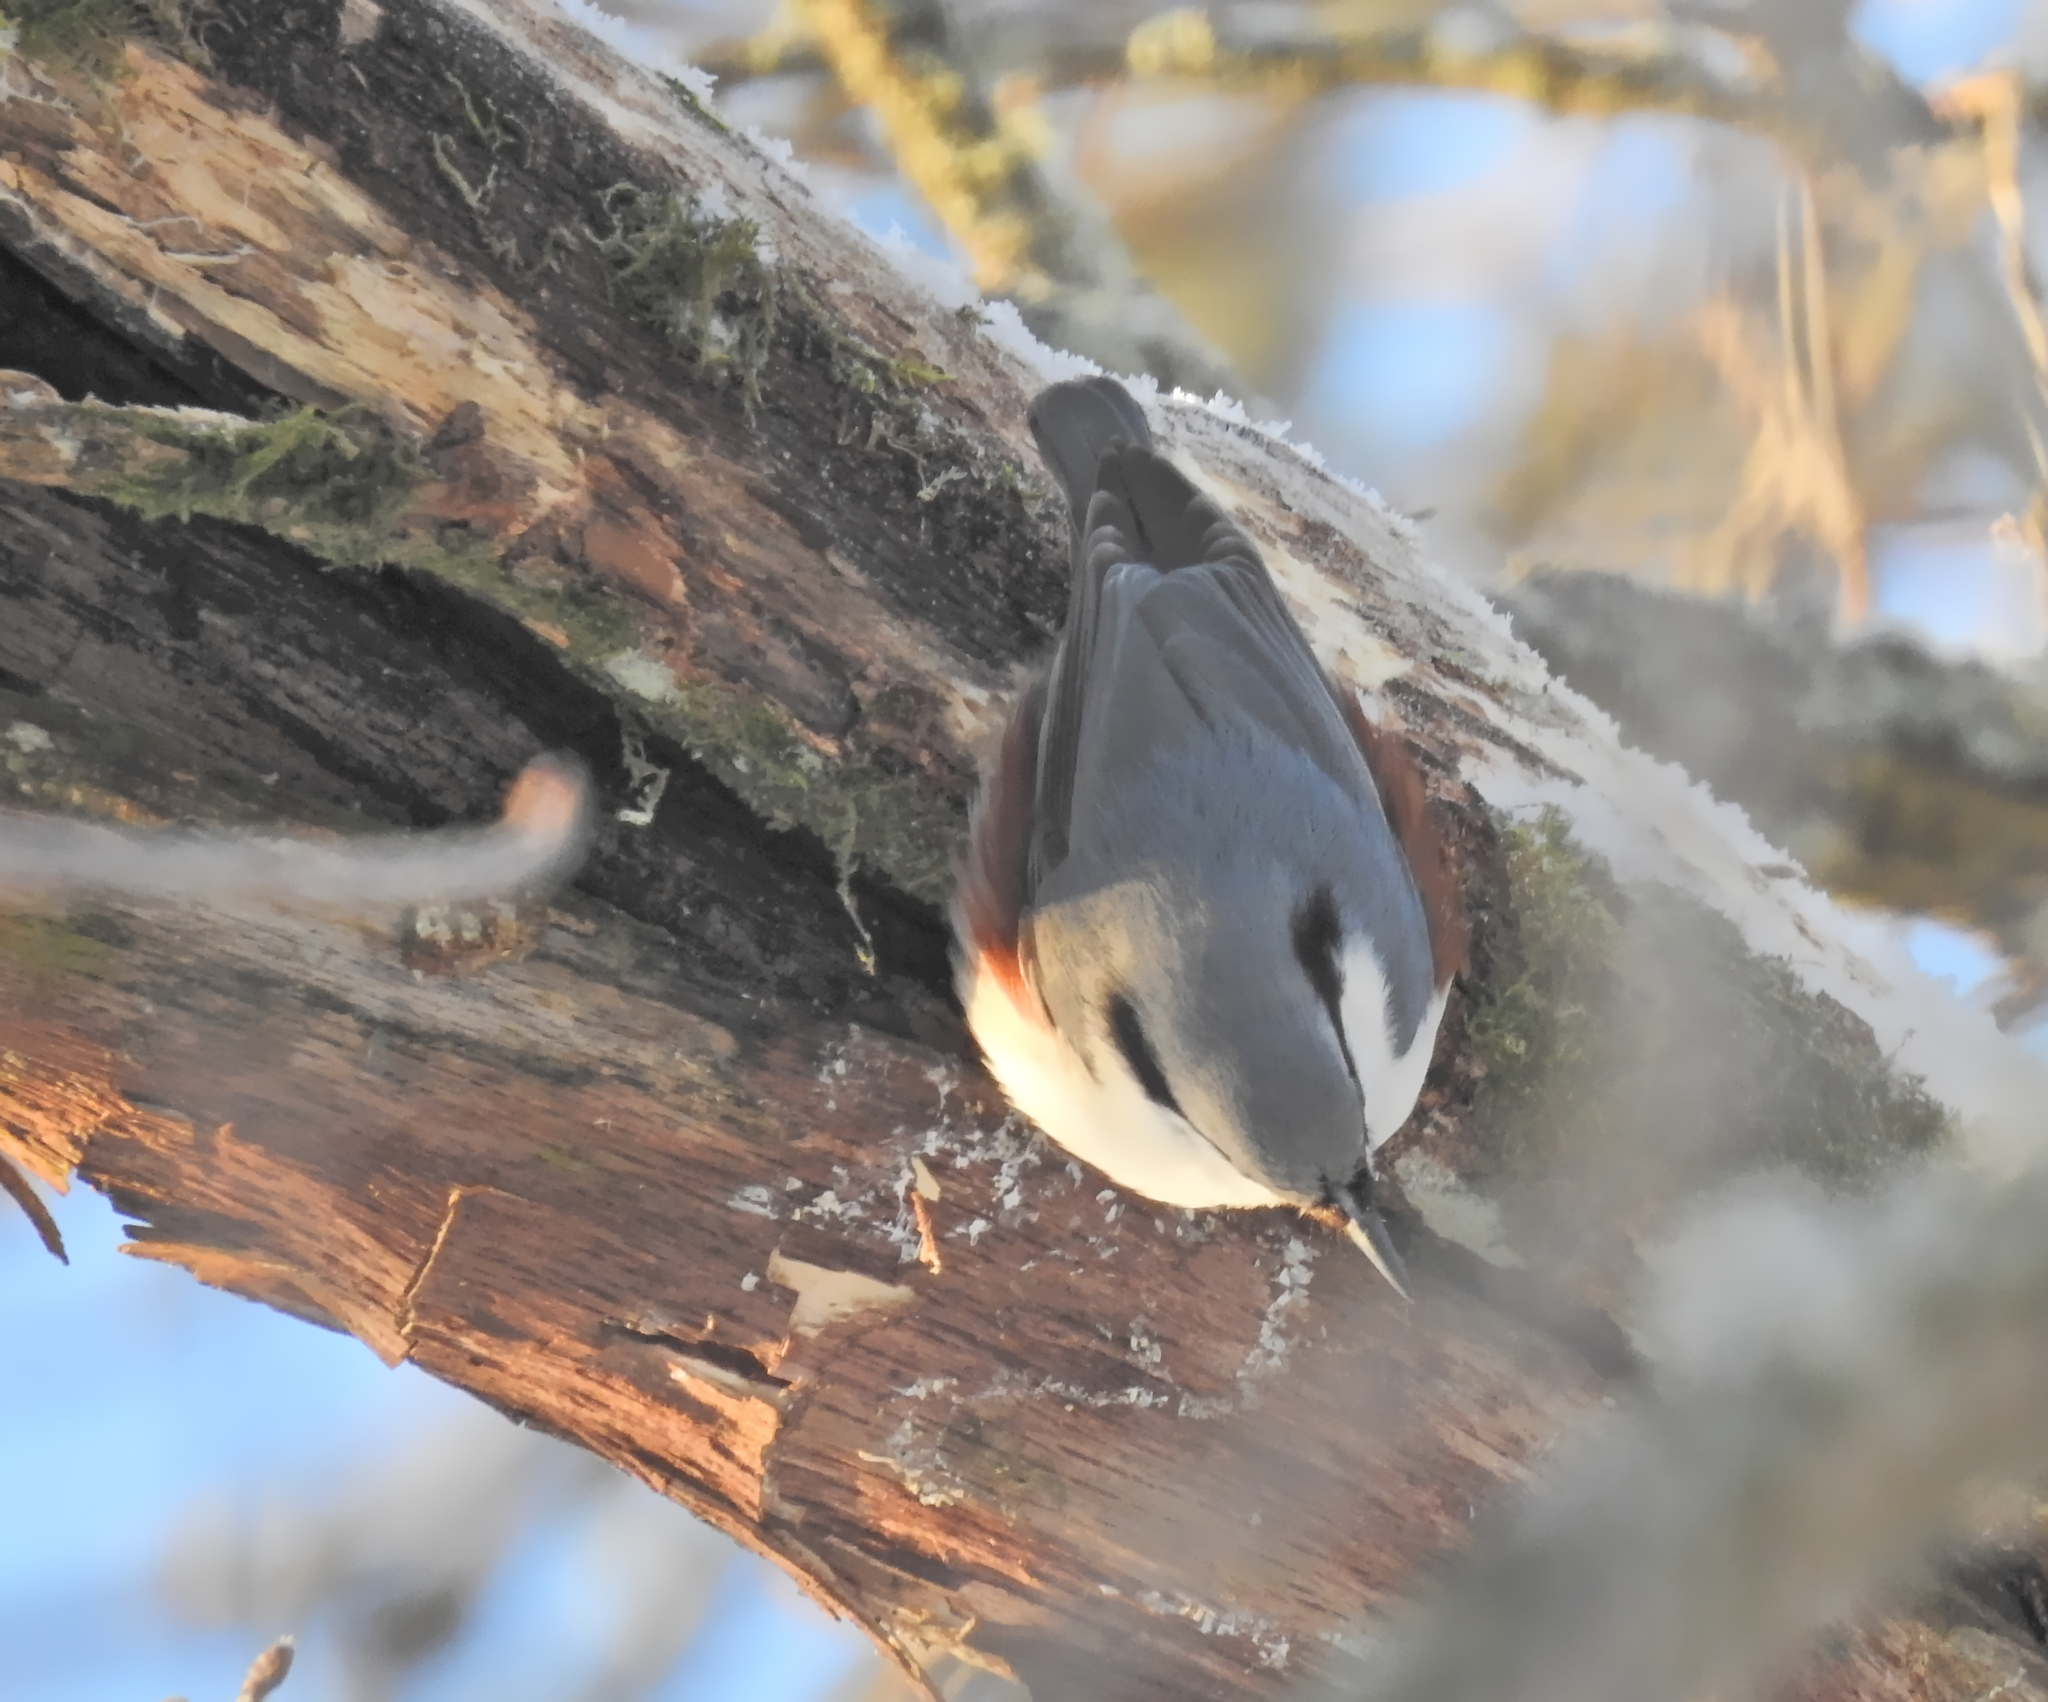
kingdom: Animalia
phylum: Chordata
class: Aves
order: Passeriformes
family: Sittidae
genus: Sitta
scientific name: Sitta europaea
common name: Eurasian nuthatch
